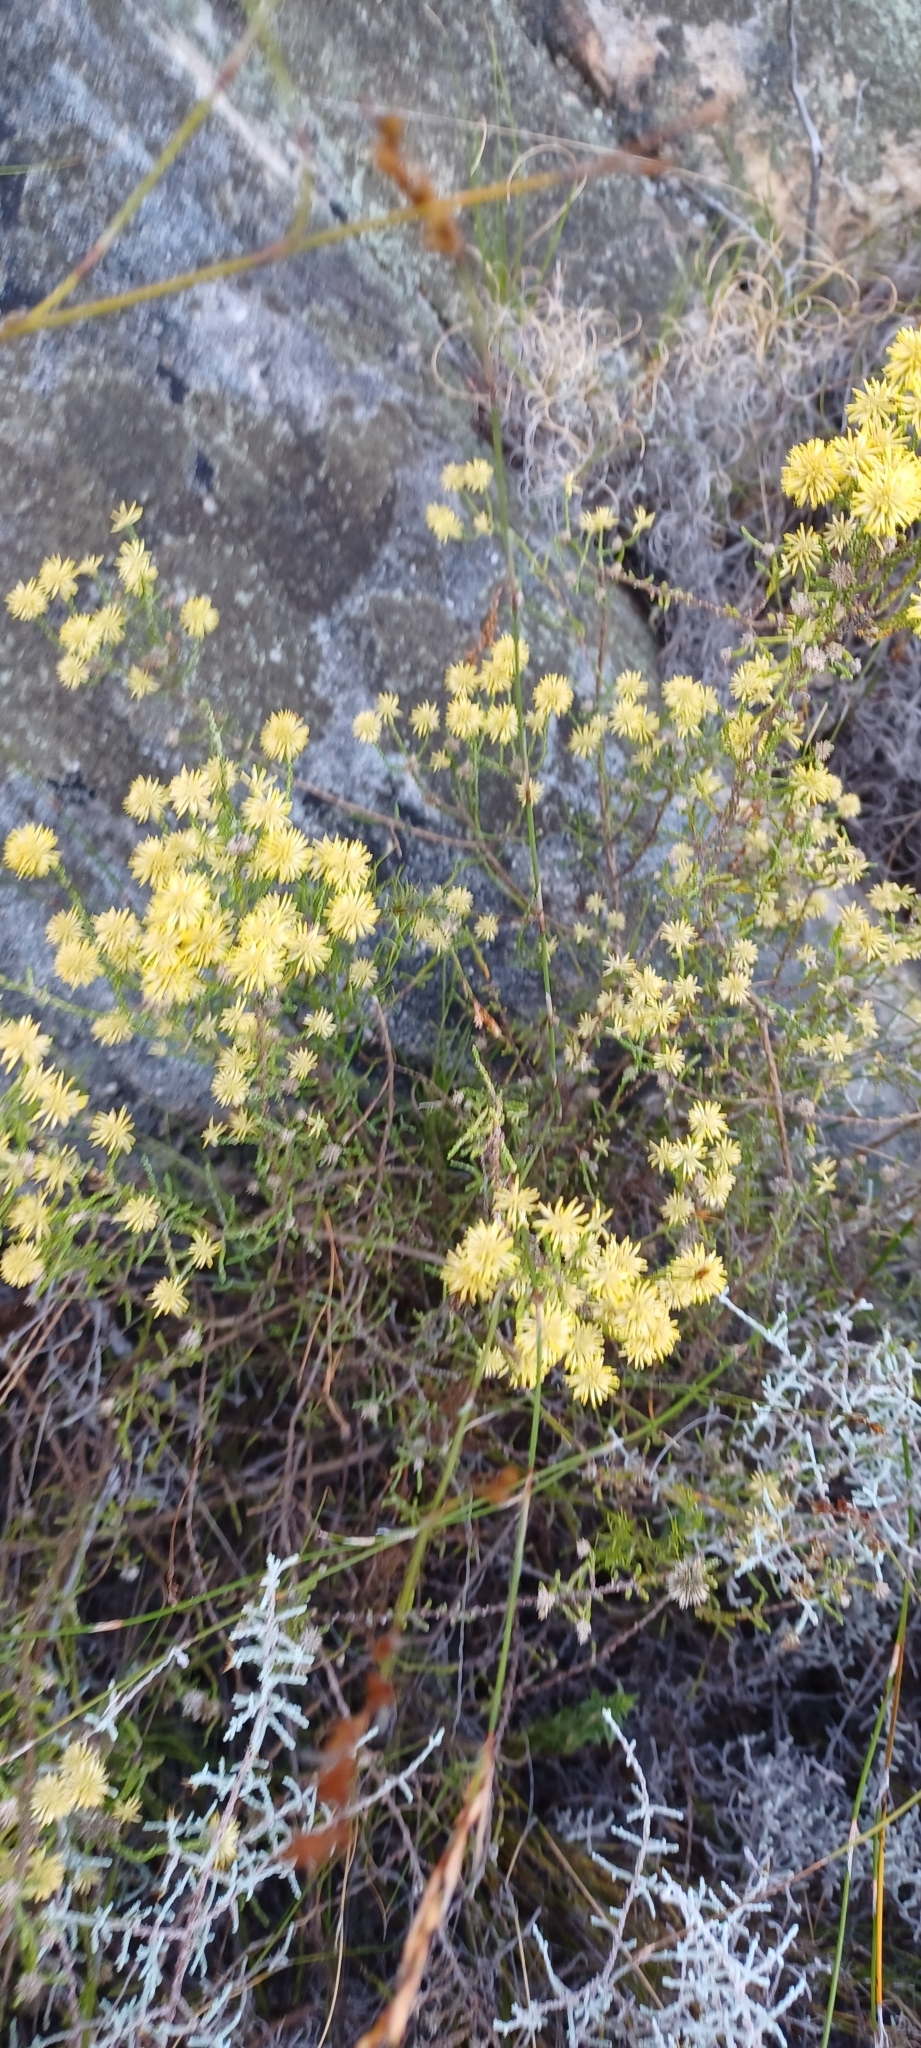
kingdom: Plantae
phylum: Tracheophyta
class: Magnoliopsida
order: Asterales
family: Asteraceae
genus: Seriphium
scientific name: Seriphium spirale
